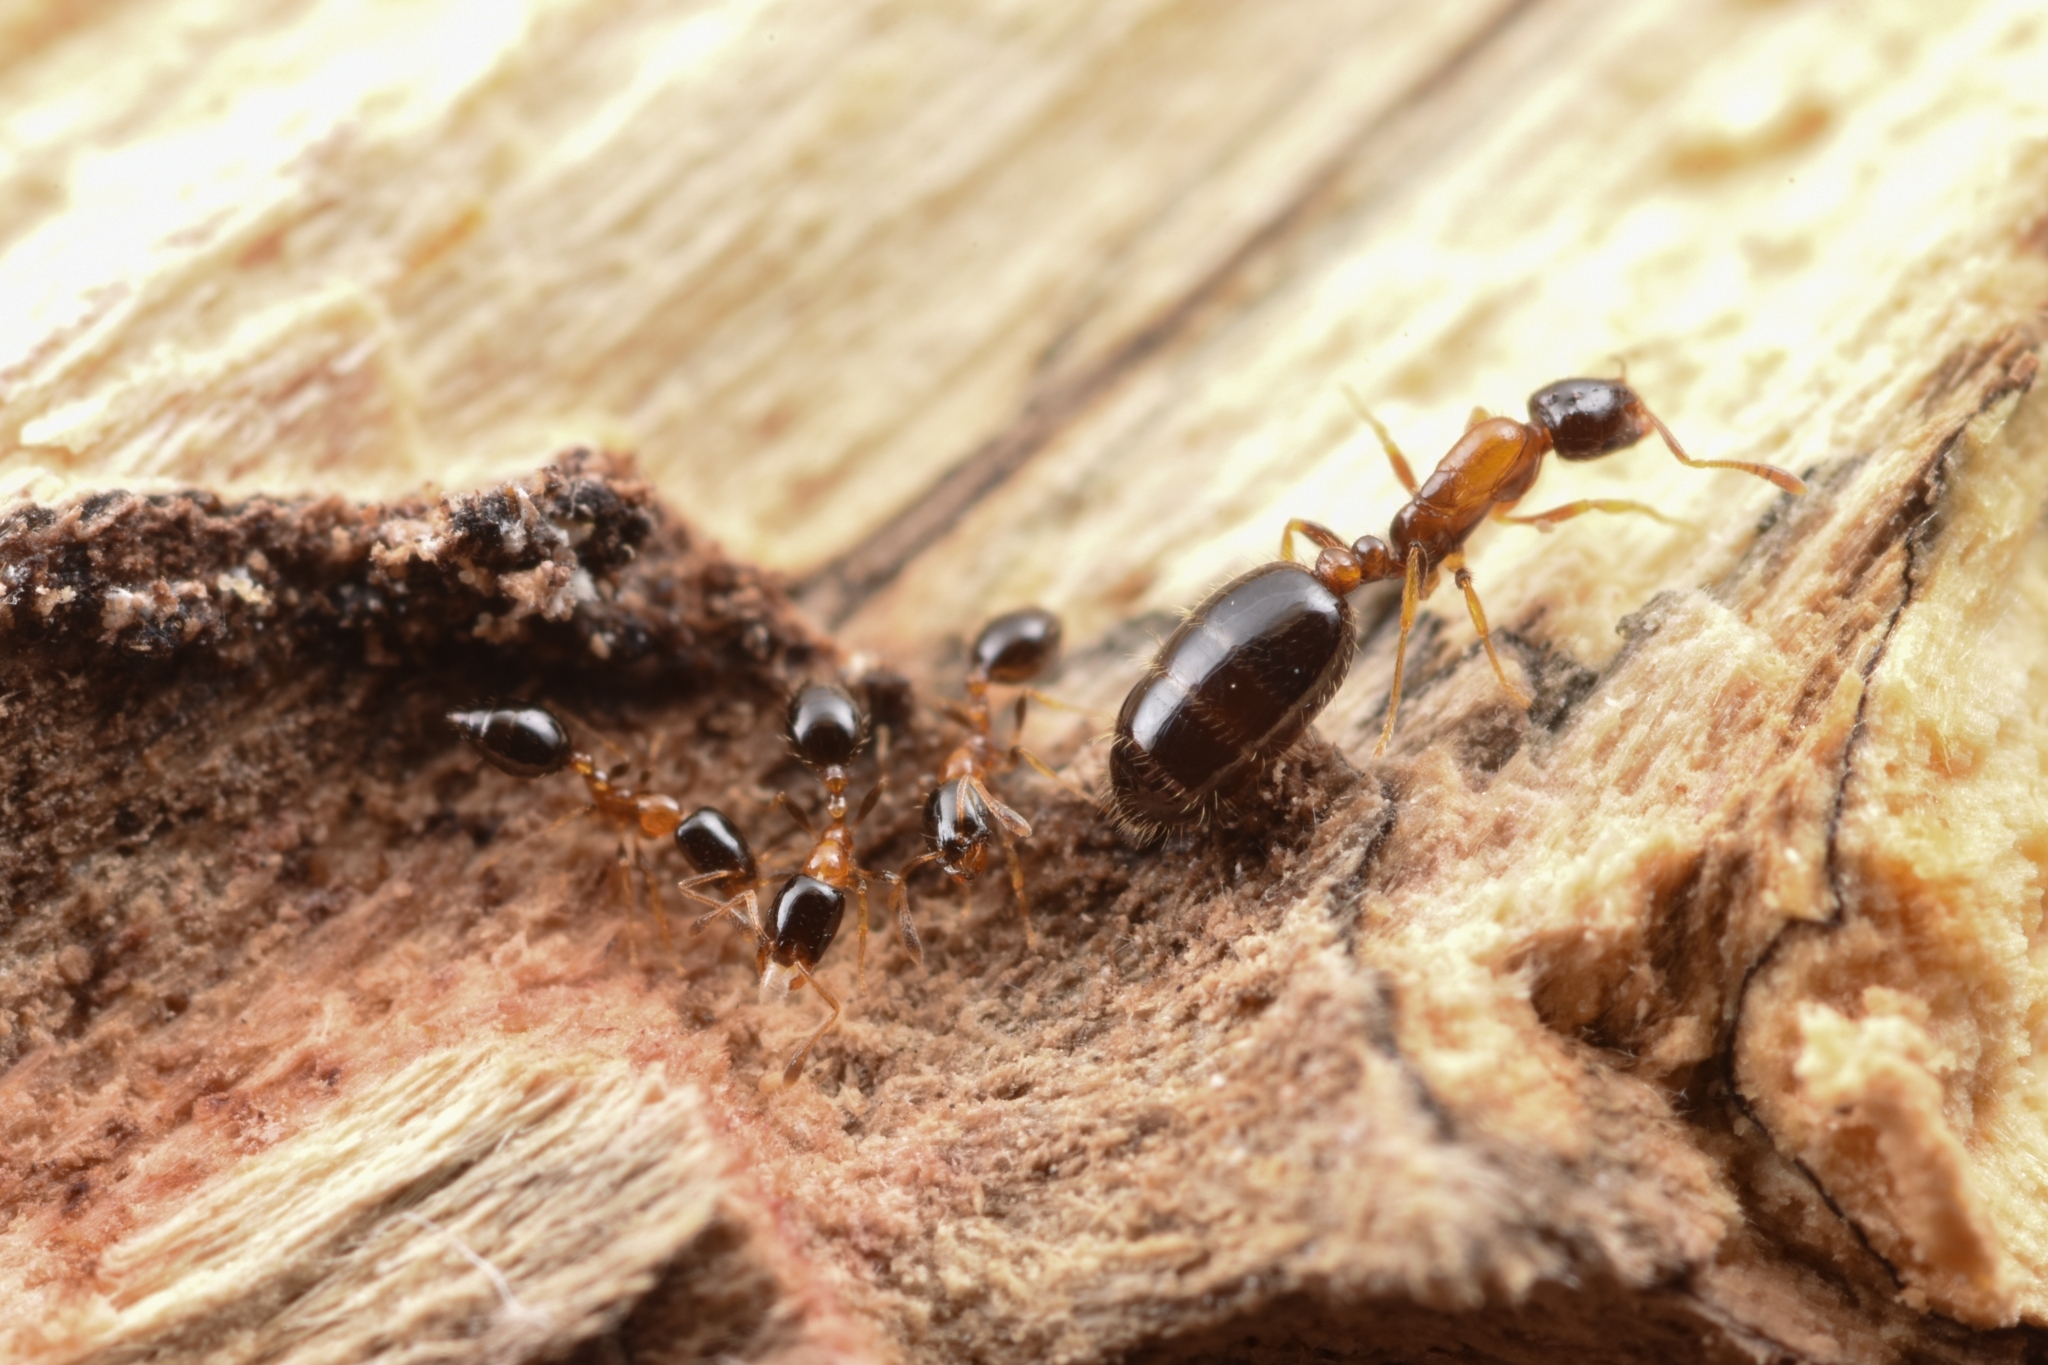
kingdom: Animalia
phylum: Arthropoda
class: Insecta
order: Hymenoptera
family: Formicidae
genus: Monomorium
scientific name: Monomorium floricola
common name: Bicolored trailing ant
